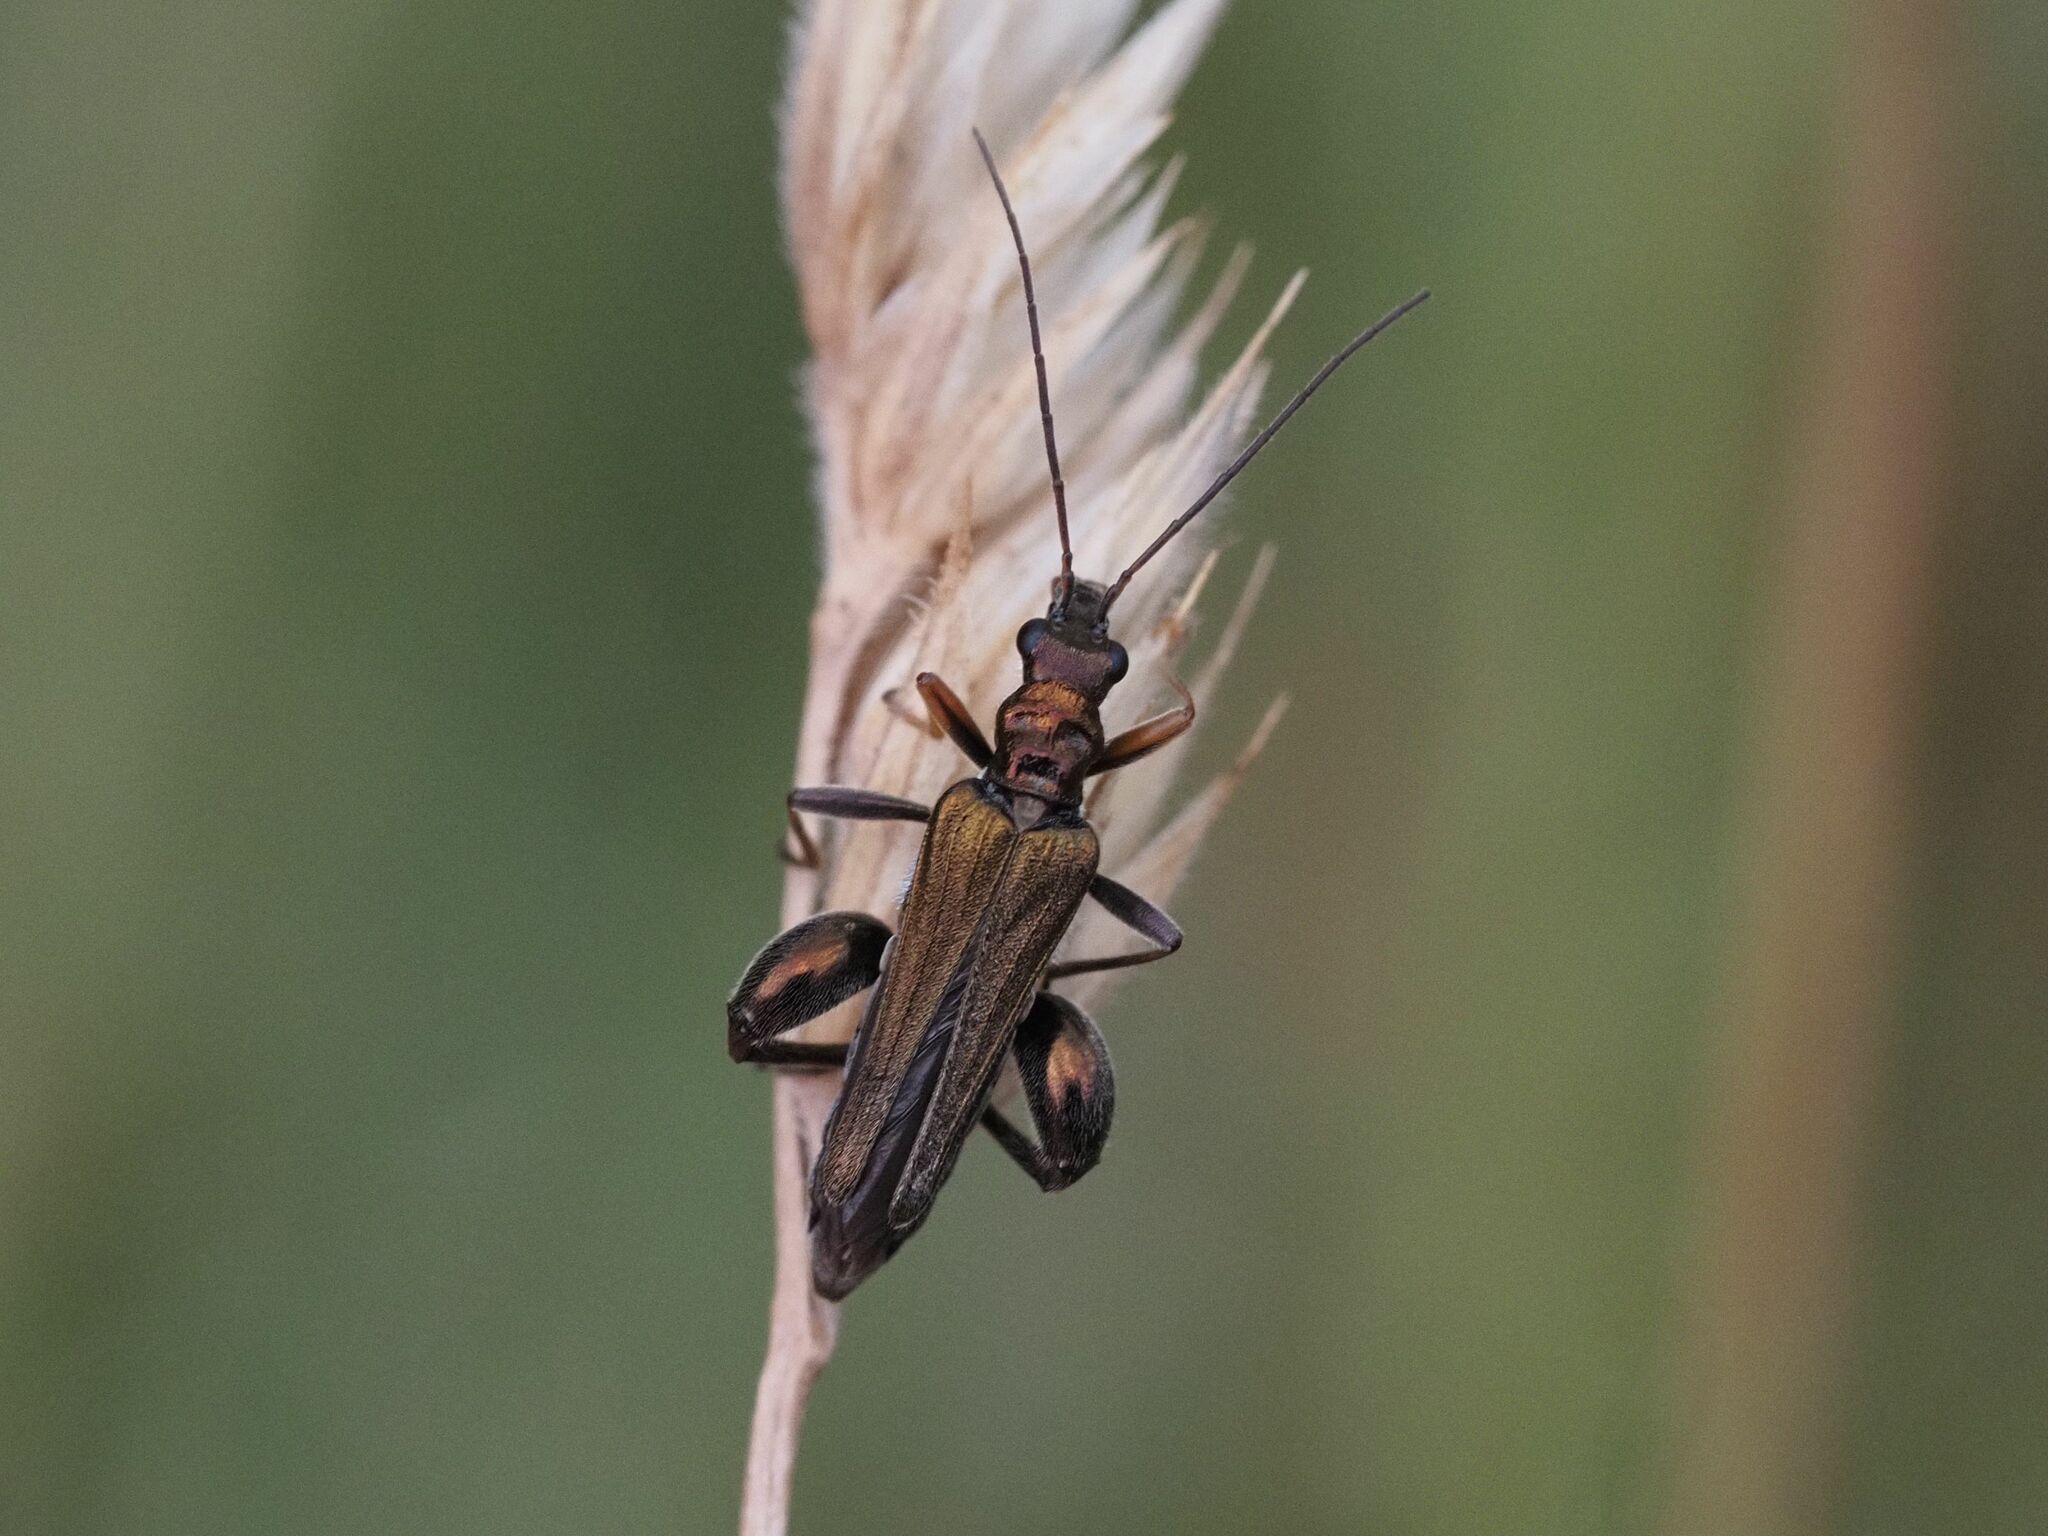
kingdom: Animalia
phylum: Arthropoda
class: Insecta
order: Coleoptera
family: Oedemeridae
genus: Oedemera
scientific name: Oedemera flavipes
